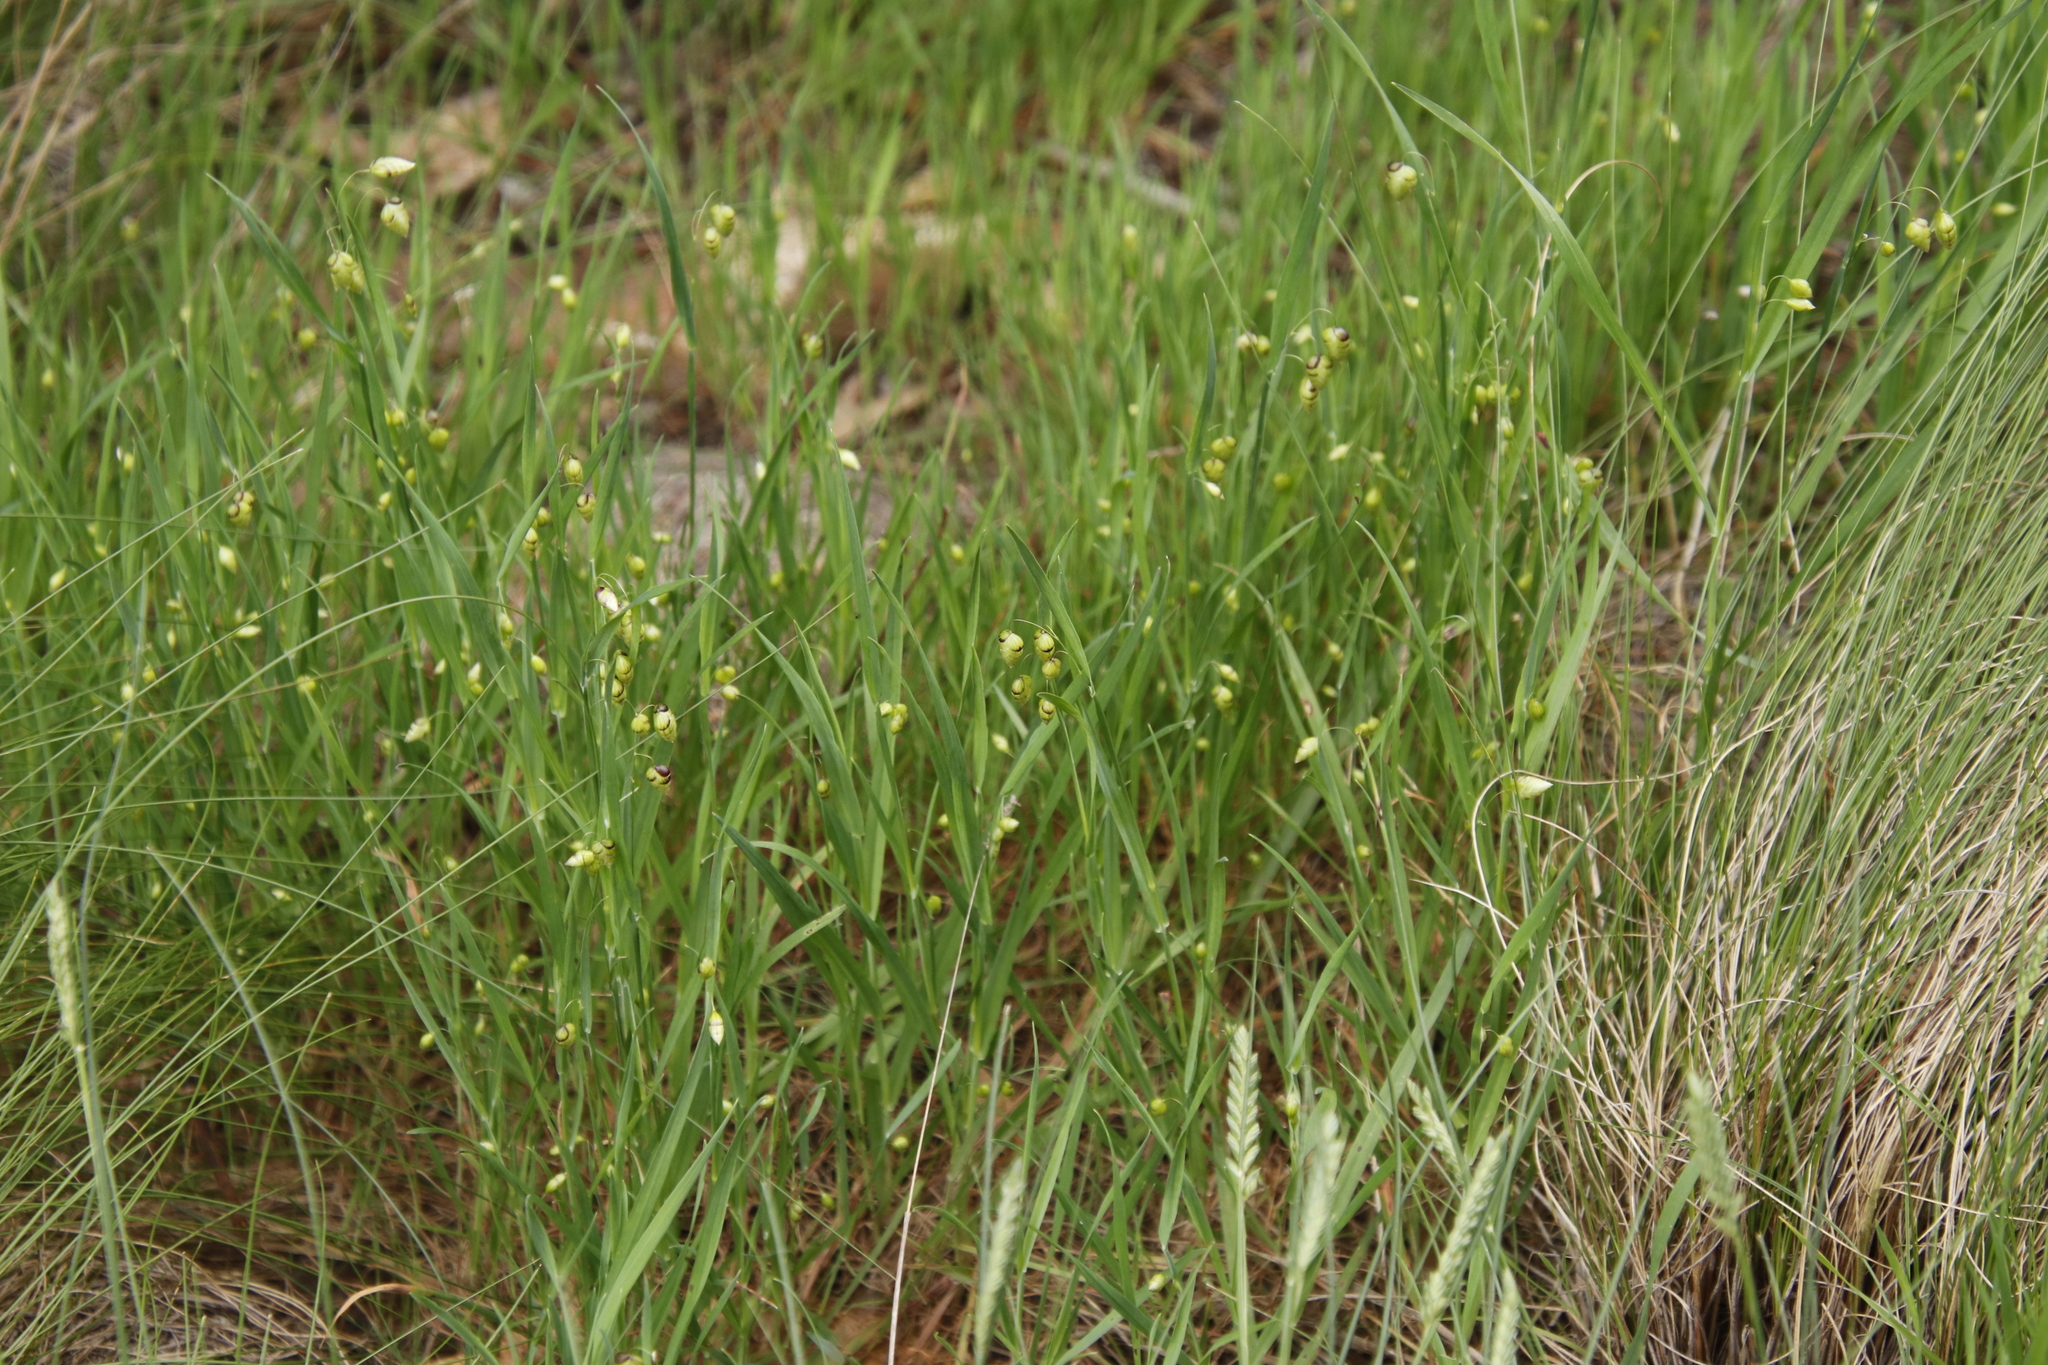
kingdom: Plantae
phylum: Tracheophyta
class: Liliopsida
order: Poales
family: Poaceae
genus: Briza
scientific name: Briza maxima
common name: Big quakinggrass
